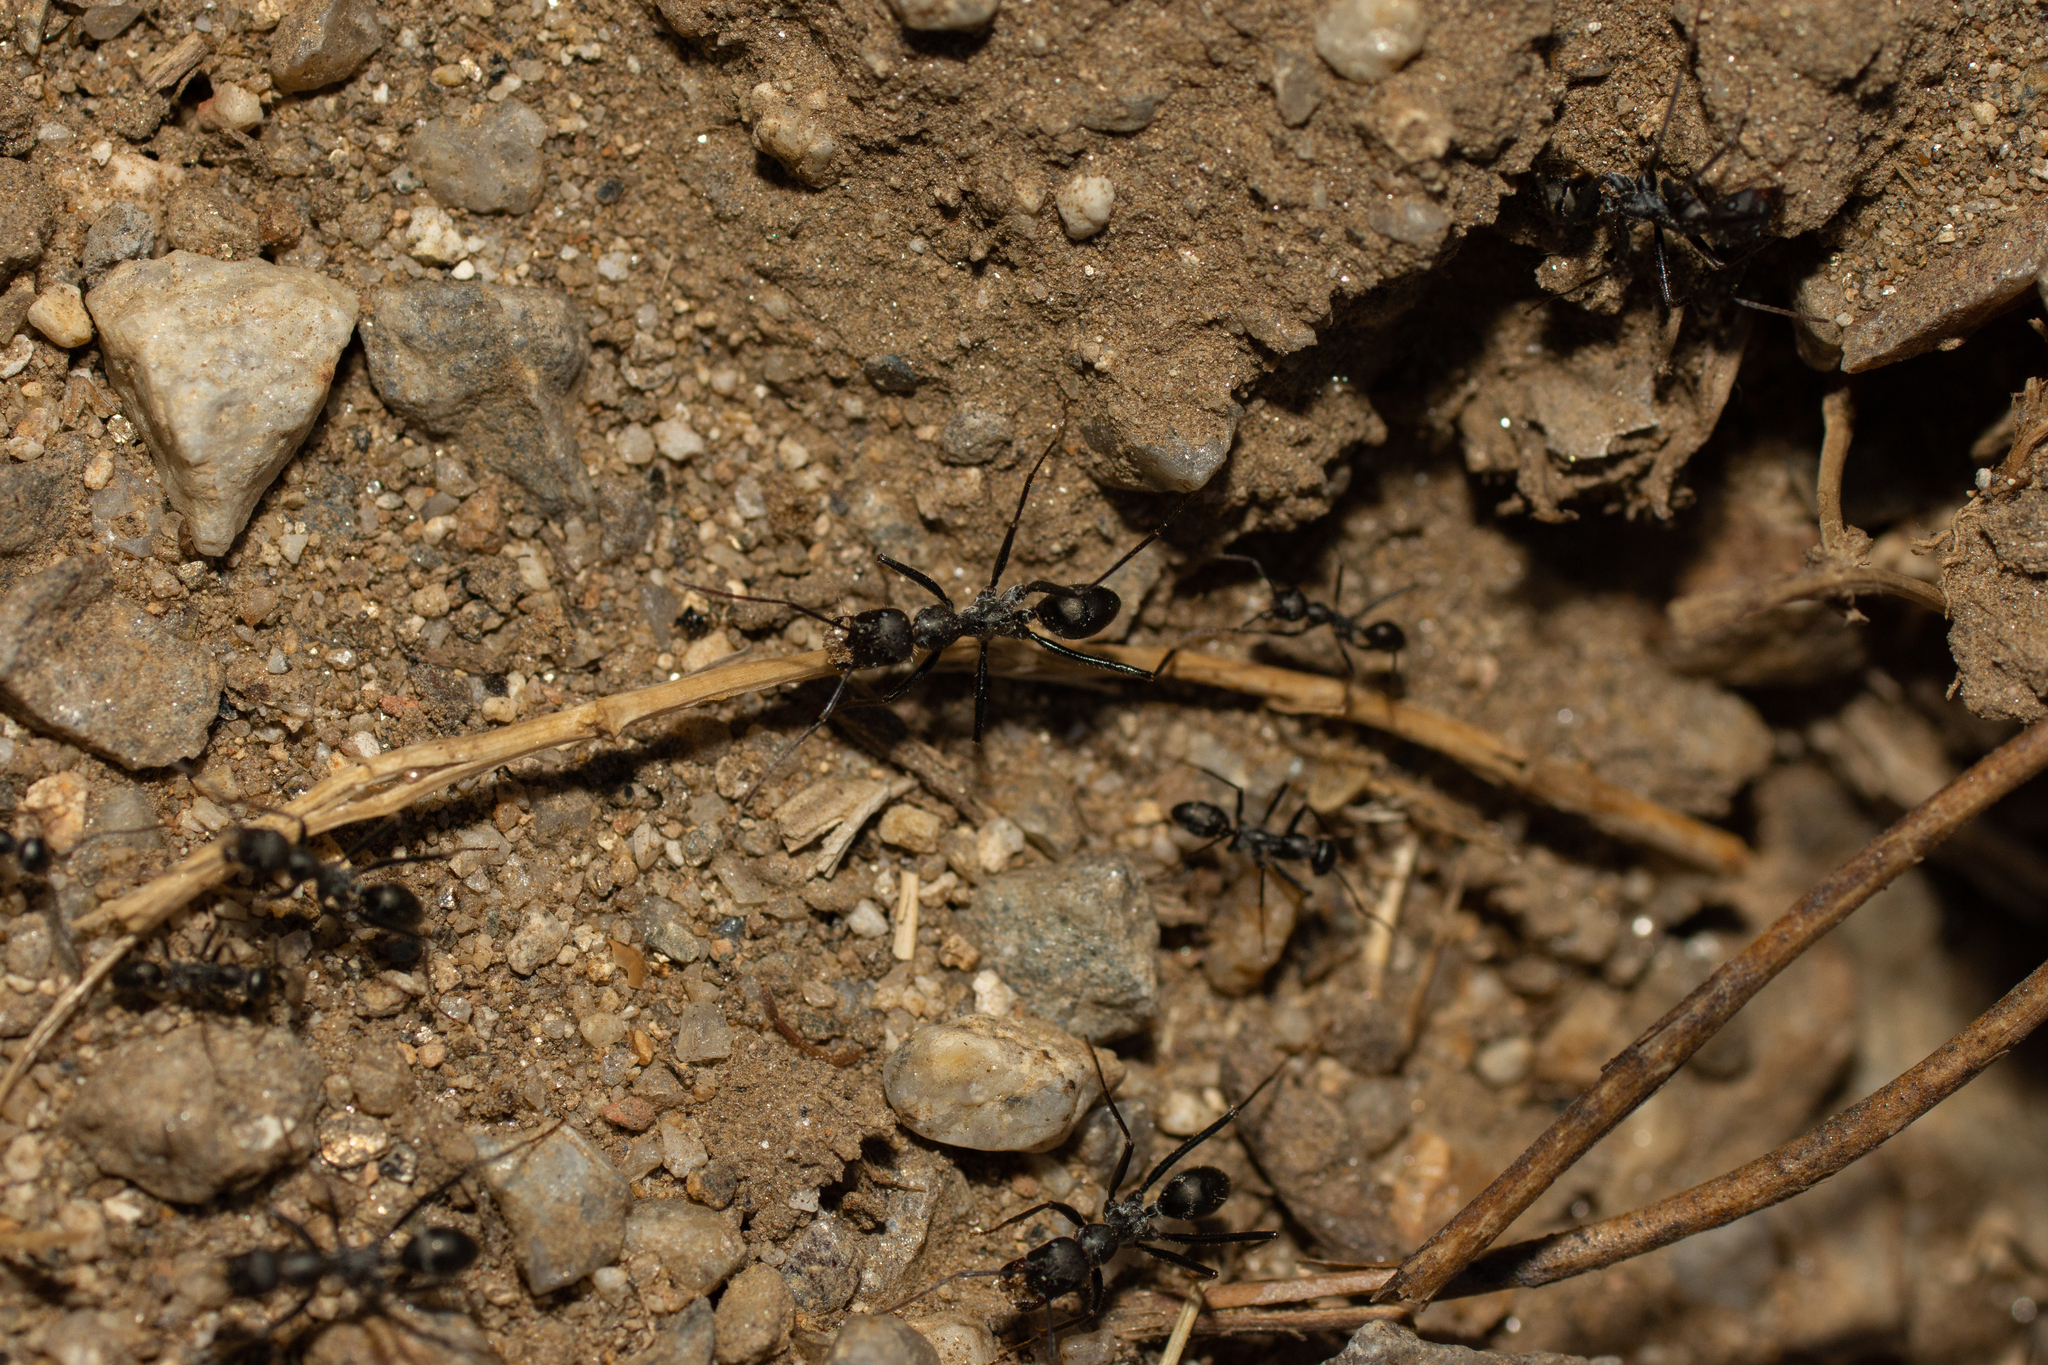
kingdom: Animalia
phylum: Arthropoda
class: Insecta
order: Hymenoptera
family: Formicidae
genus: Cataglyphis
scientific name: Cataglyphis hispanicus
